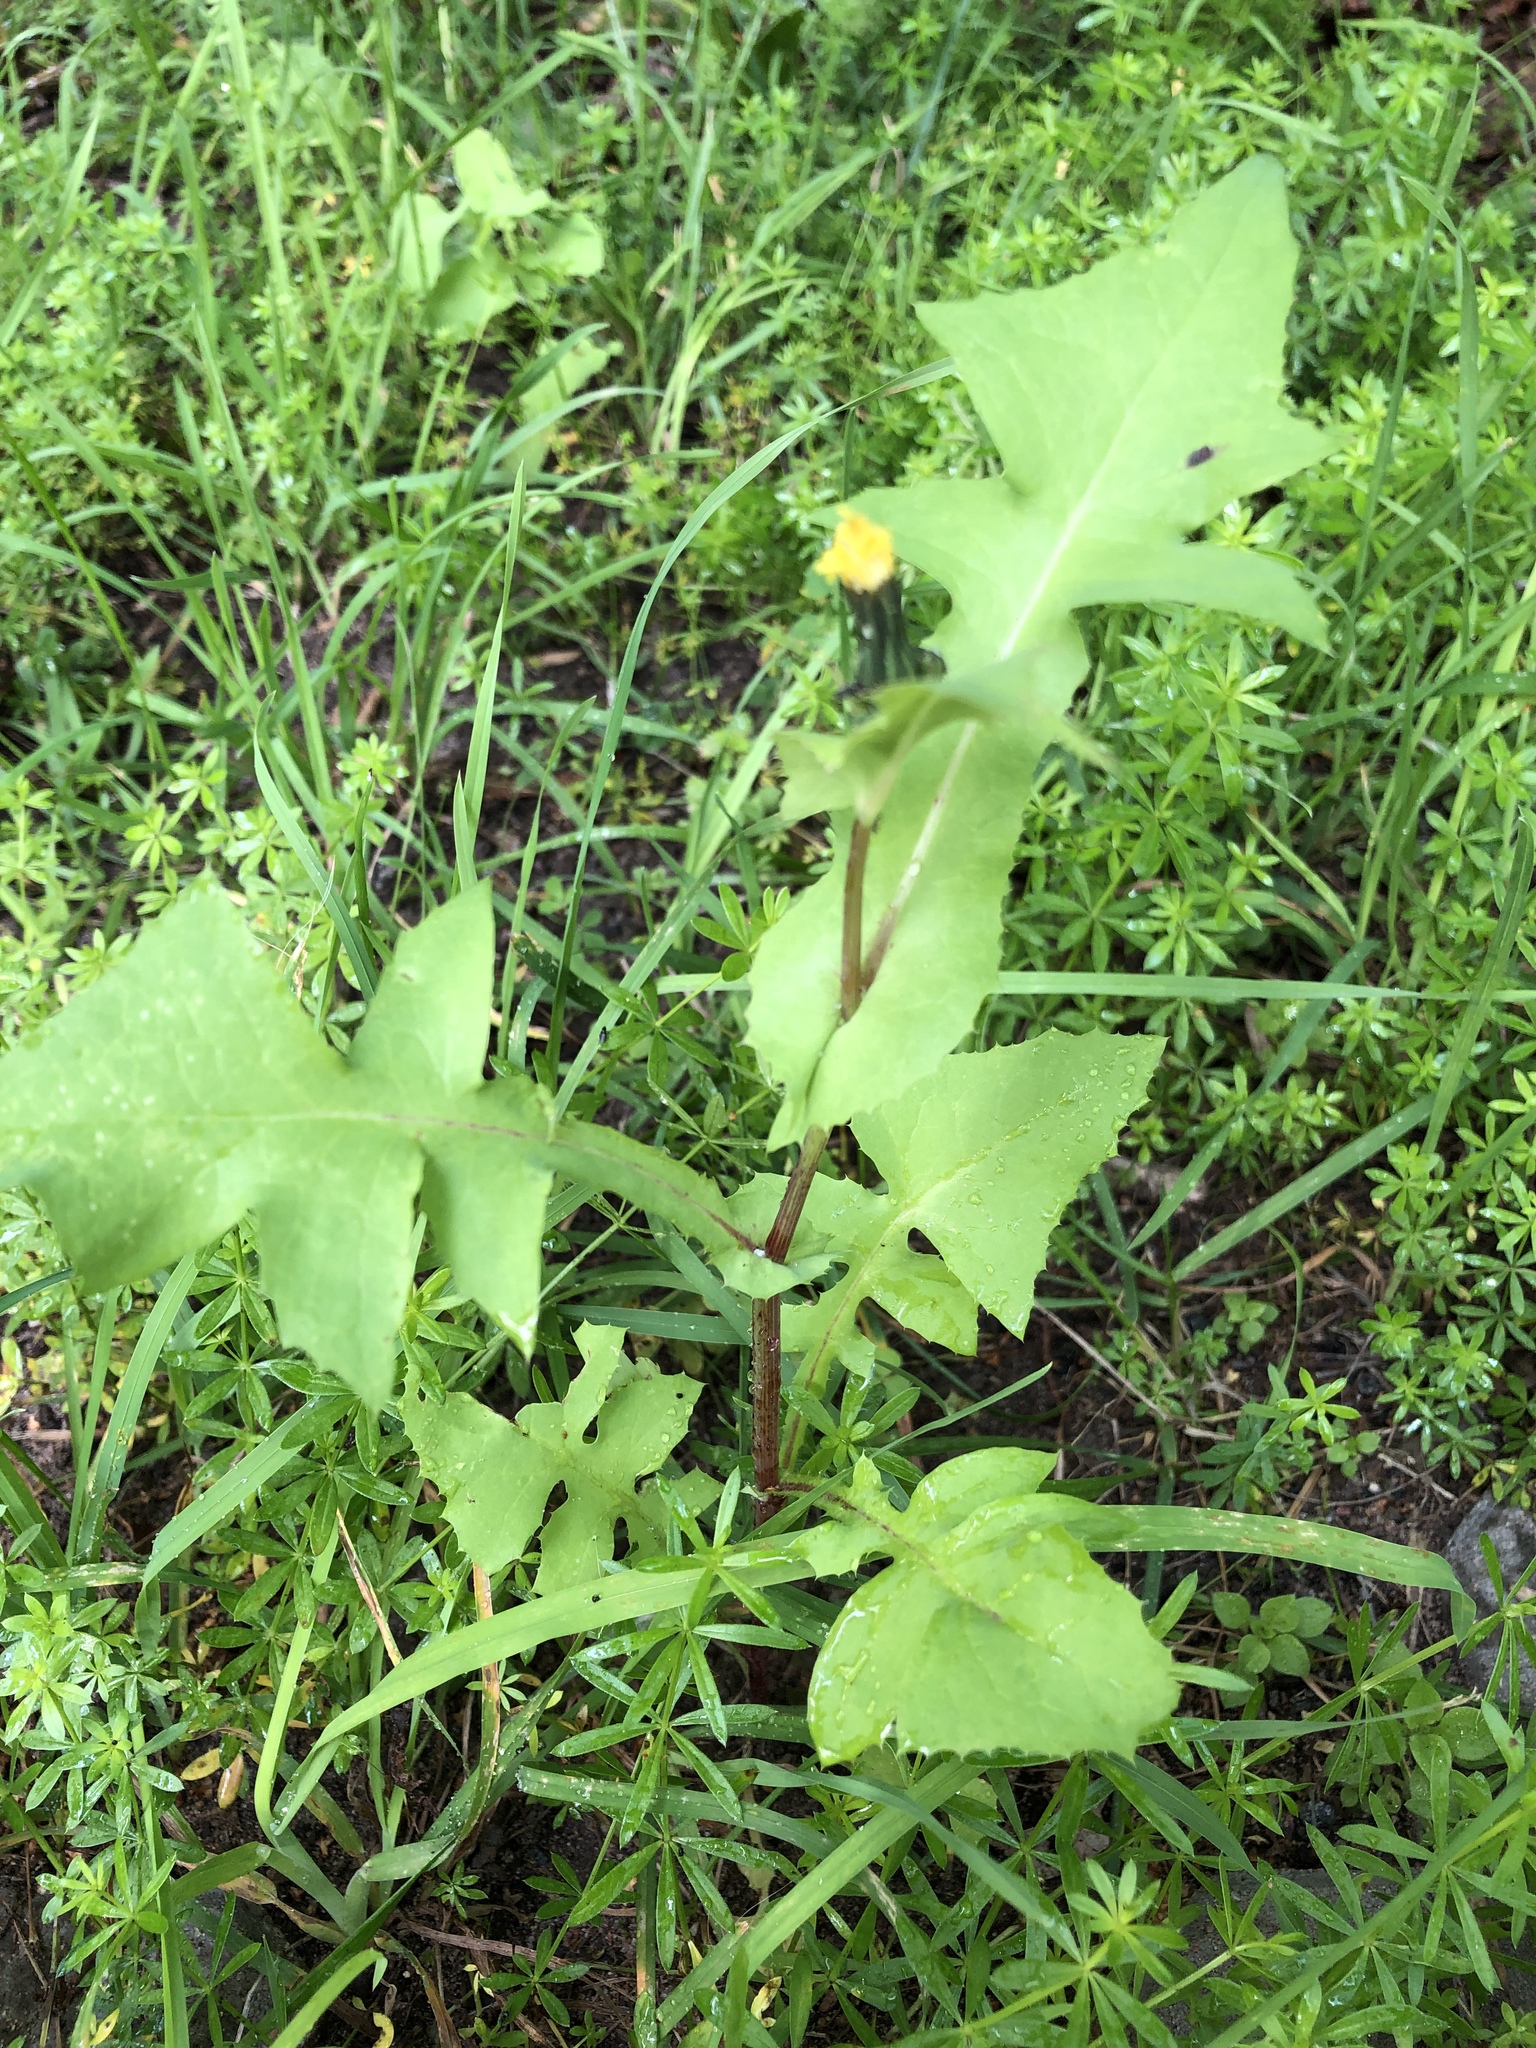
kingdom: Plantae
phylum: Tracheophyta
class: Magnoliopsida
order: Asterales
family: Asteraceae
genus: Sonchus
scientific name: Sonchus oleraceus
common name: Common sowthistle
